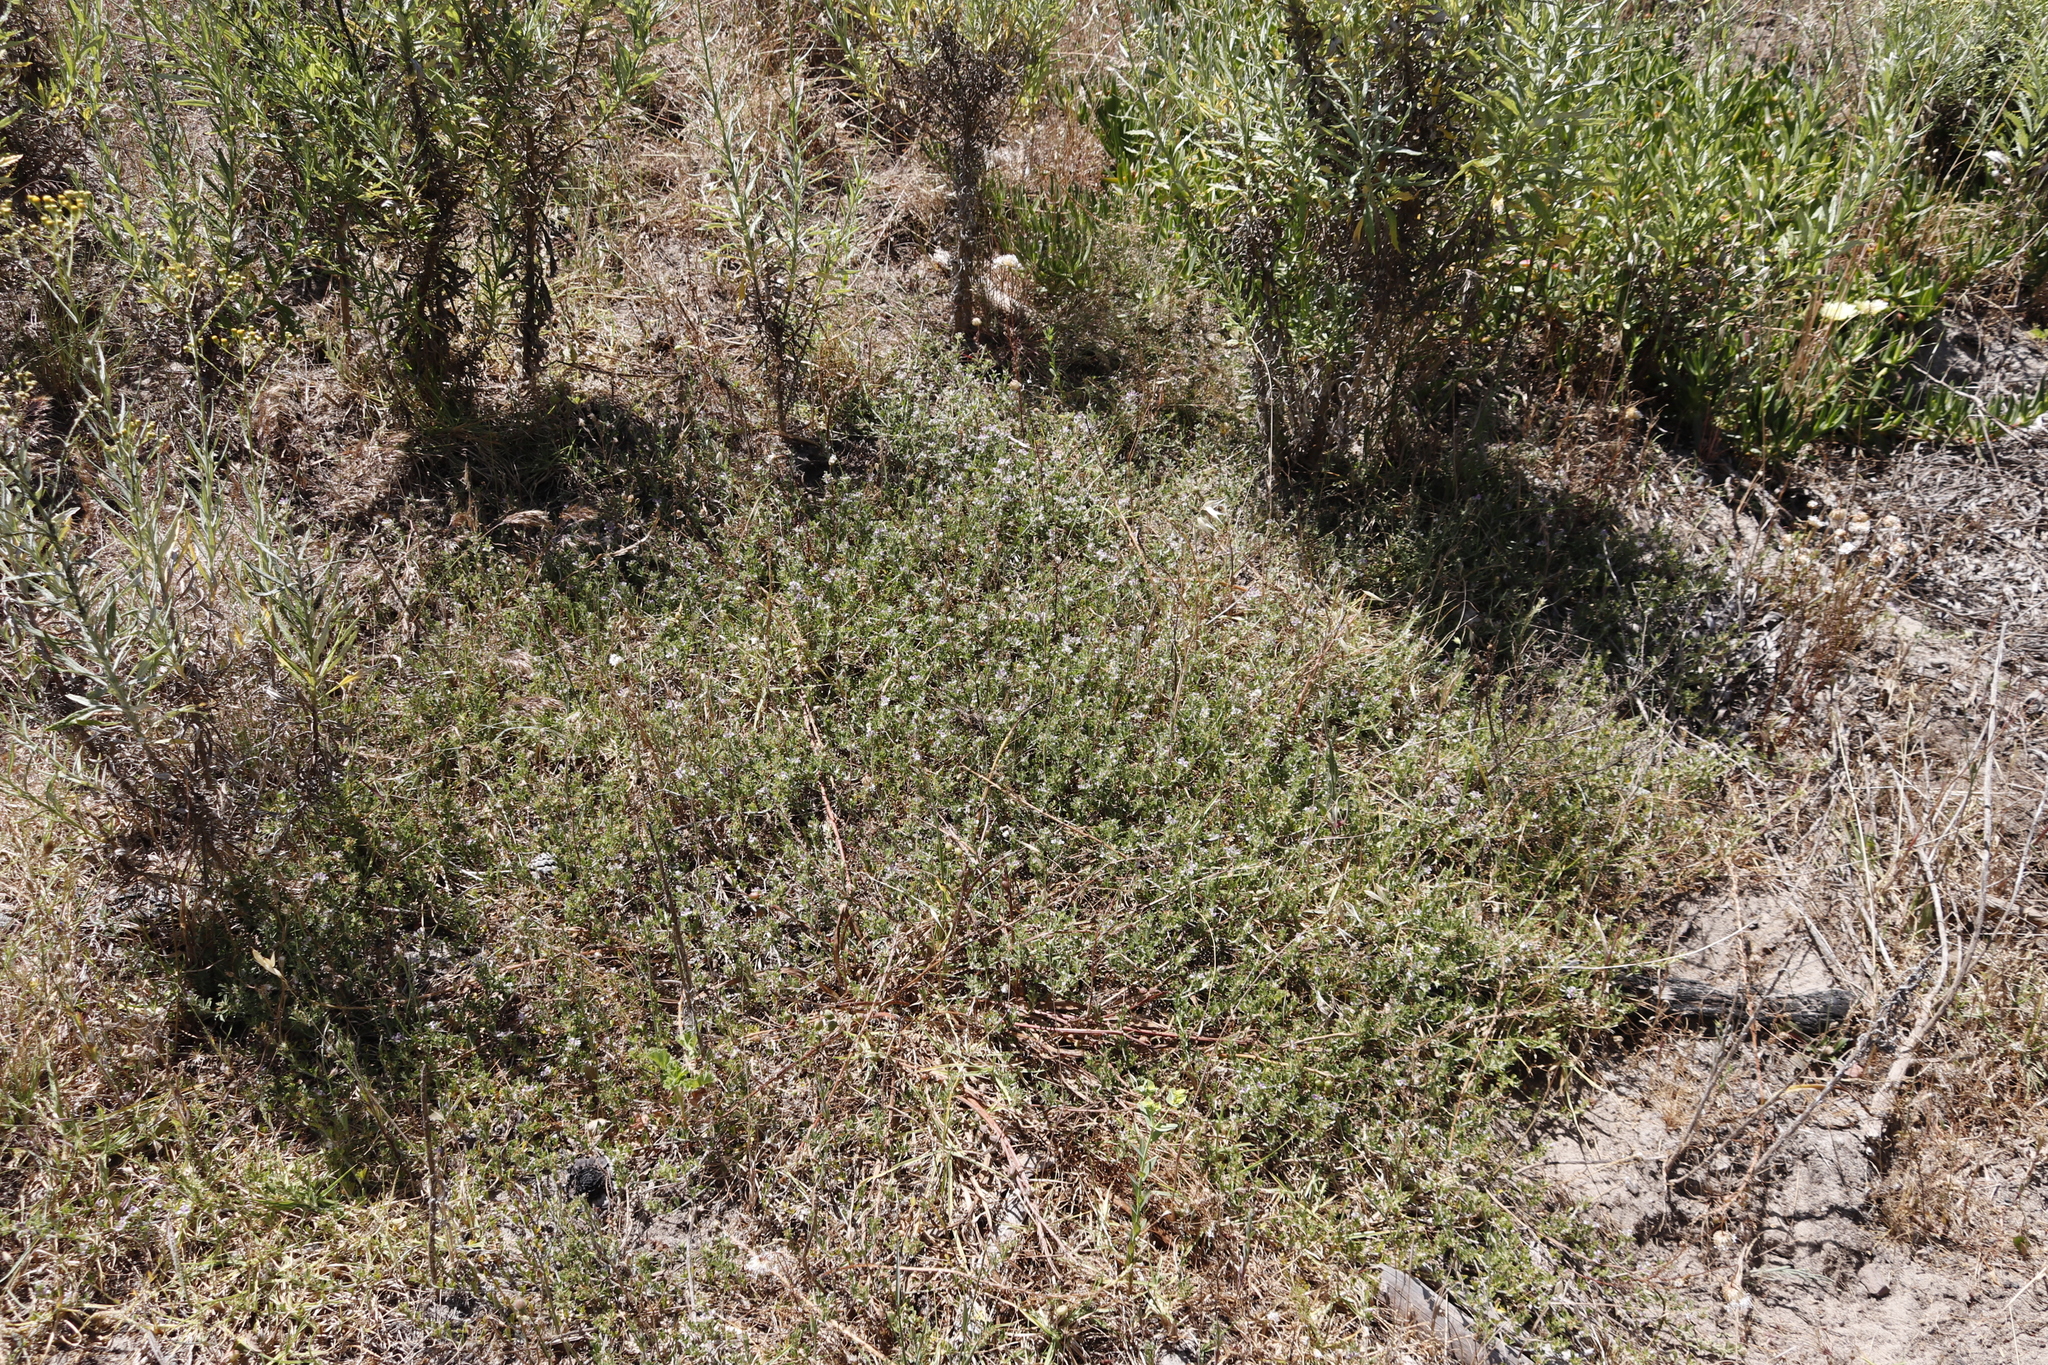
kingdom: Plantae
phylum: Tracheophyta
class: Magnoliopsida
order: Fabales
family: Fabaceae
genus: Psoralea
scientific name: Psoralea
